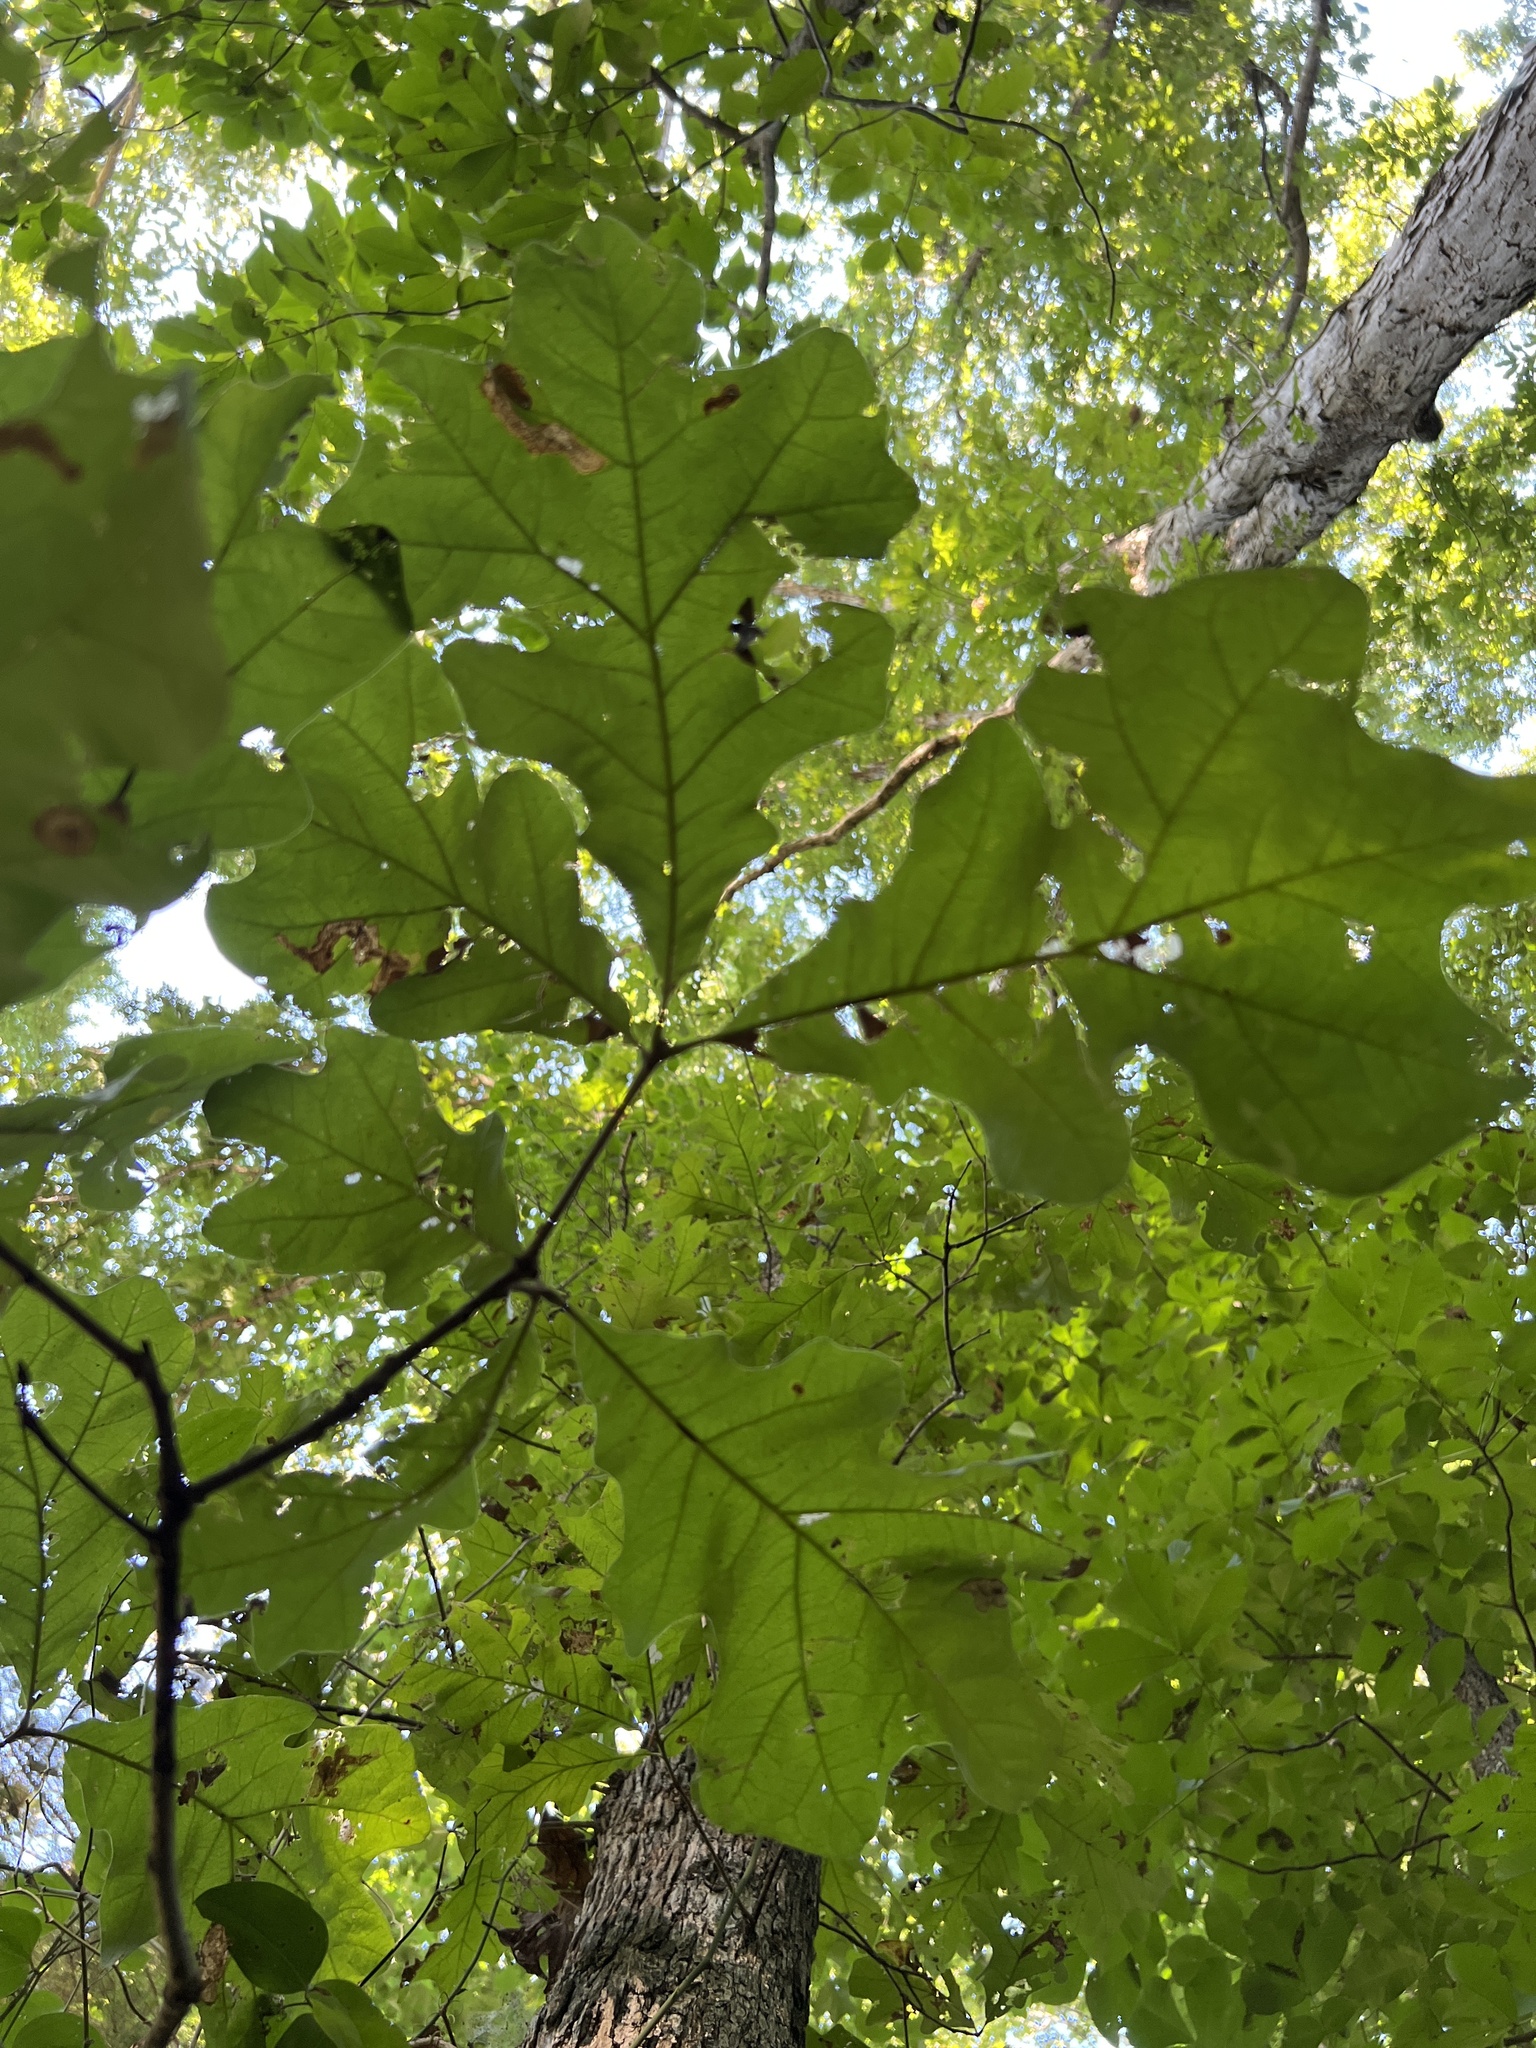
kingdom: Plantae
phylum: Tracheophyta
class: Magnoliopsida
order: Fagales
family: Fagaceae
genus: Quercus
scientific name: Quercus stellata
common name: Post oak
